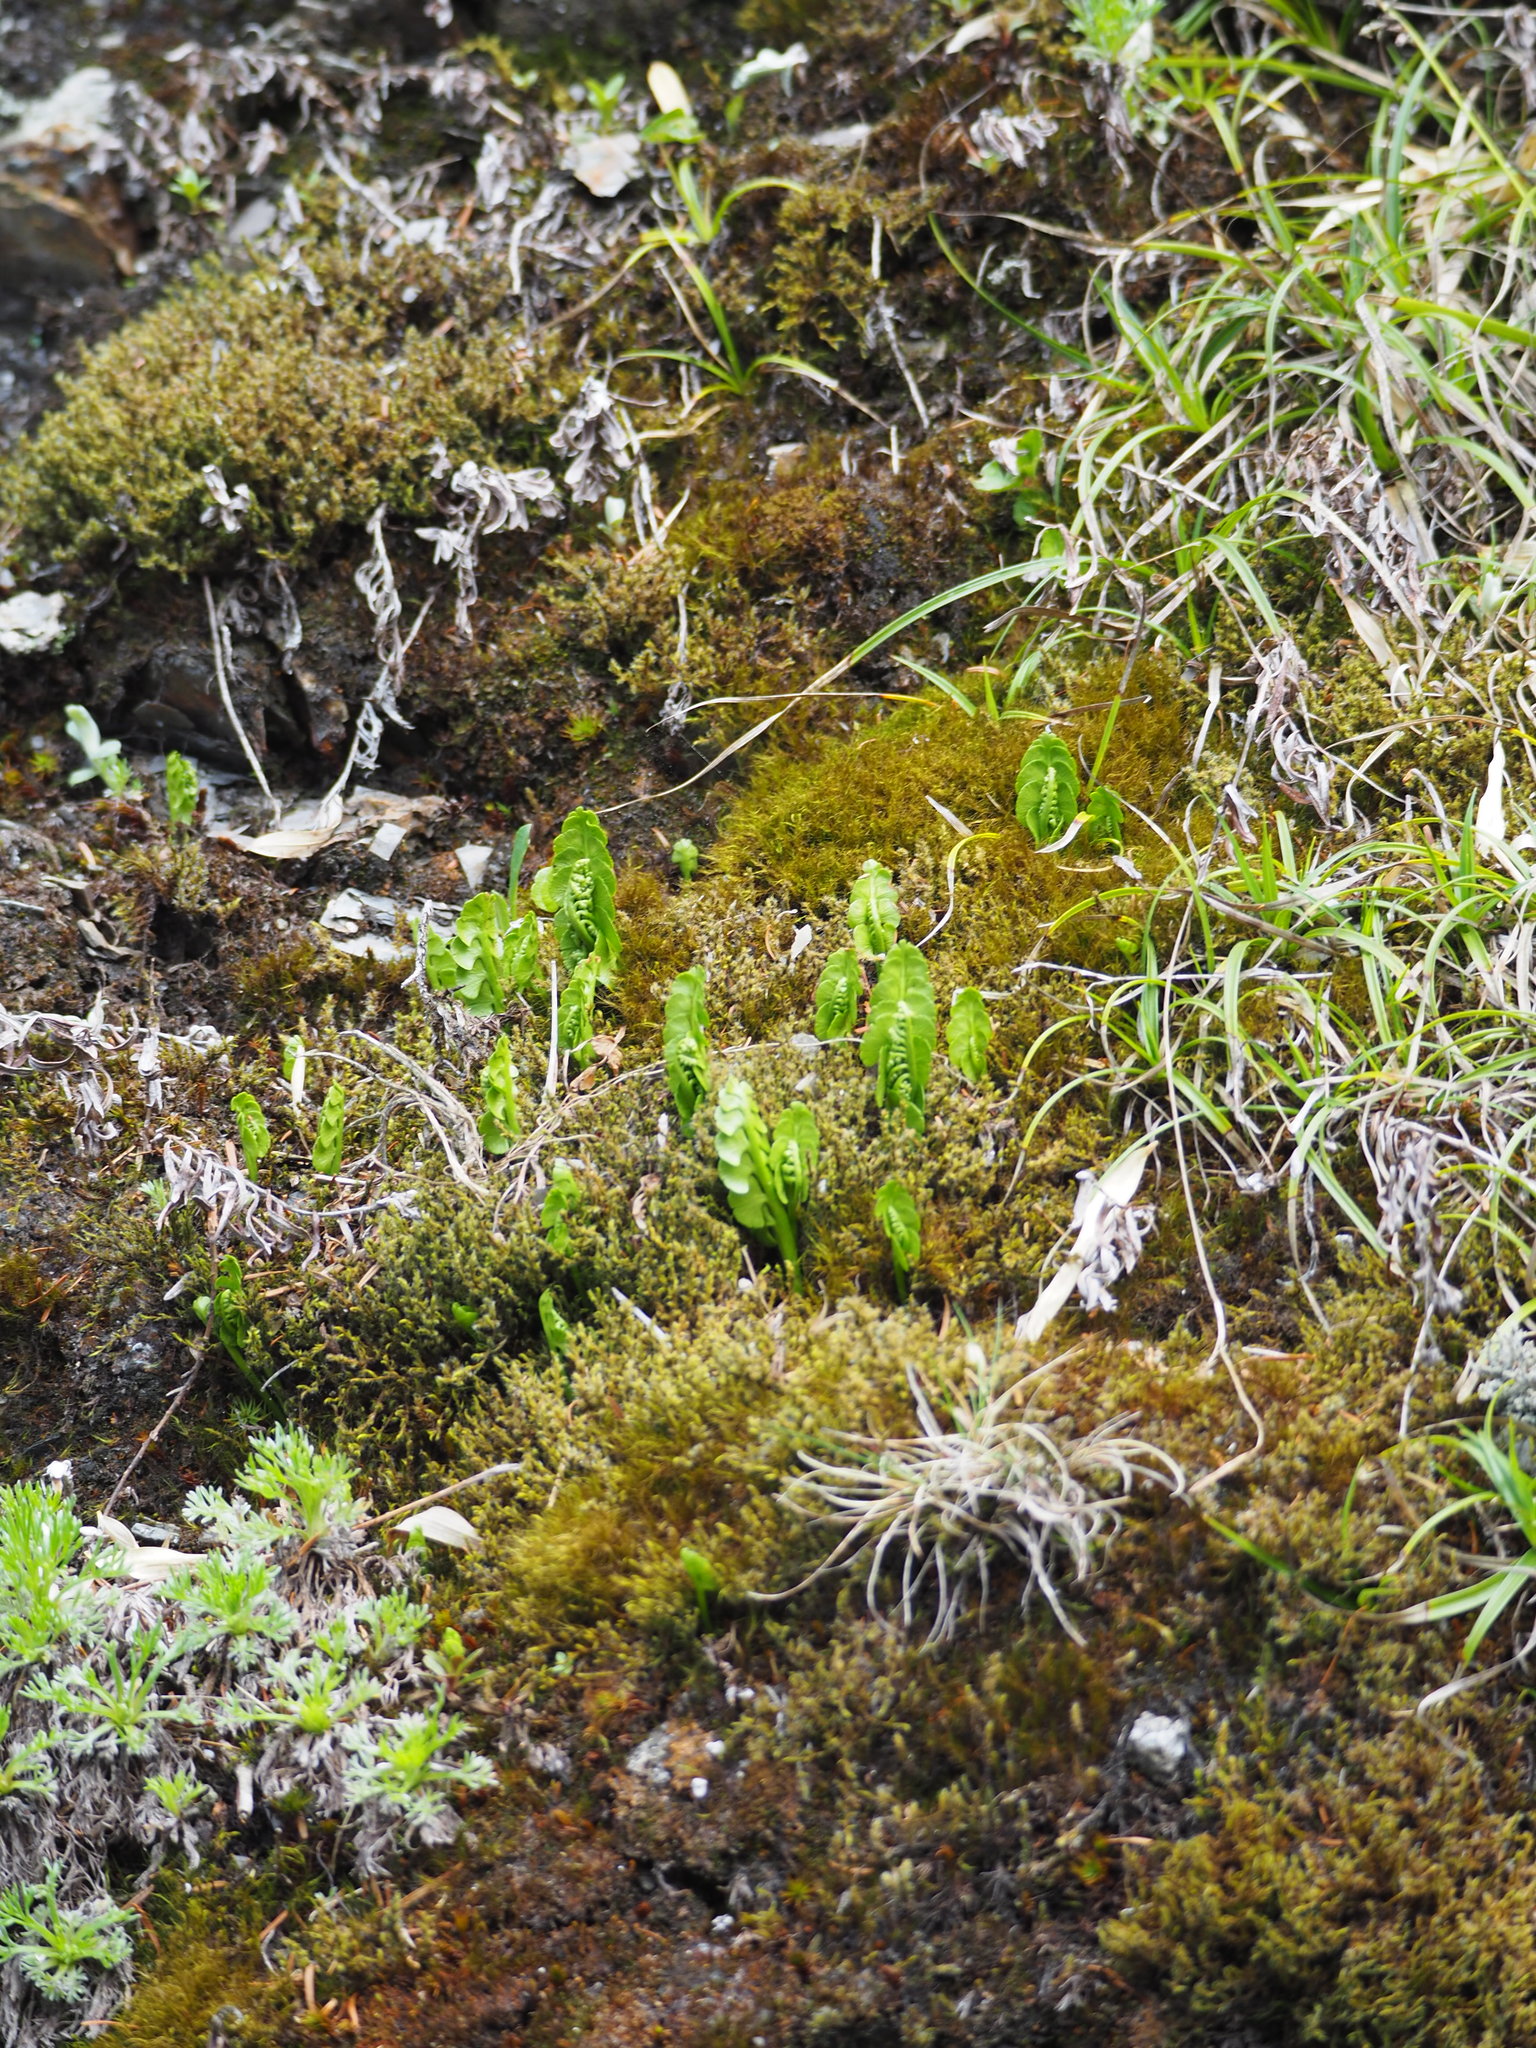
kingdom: Plantae
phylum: Tracheophyta
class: Polypodiopsida
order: Ophioglossales
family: Ophioglossaceae
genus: Botrychium
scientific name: Botrychium lunaria
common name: Moonwort
